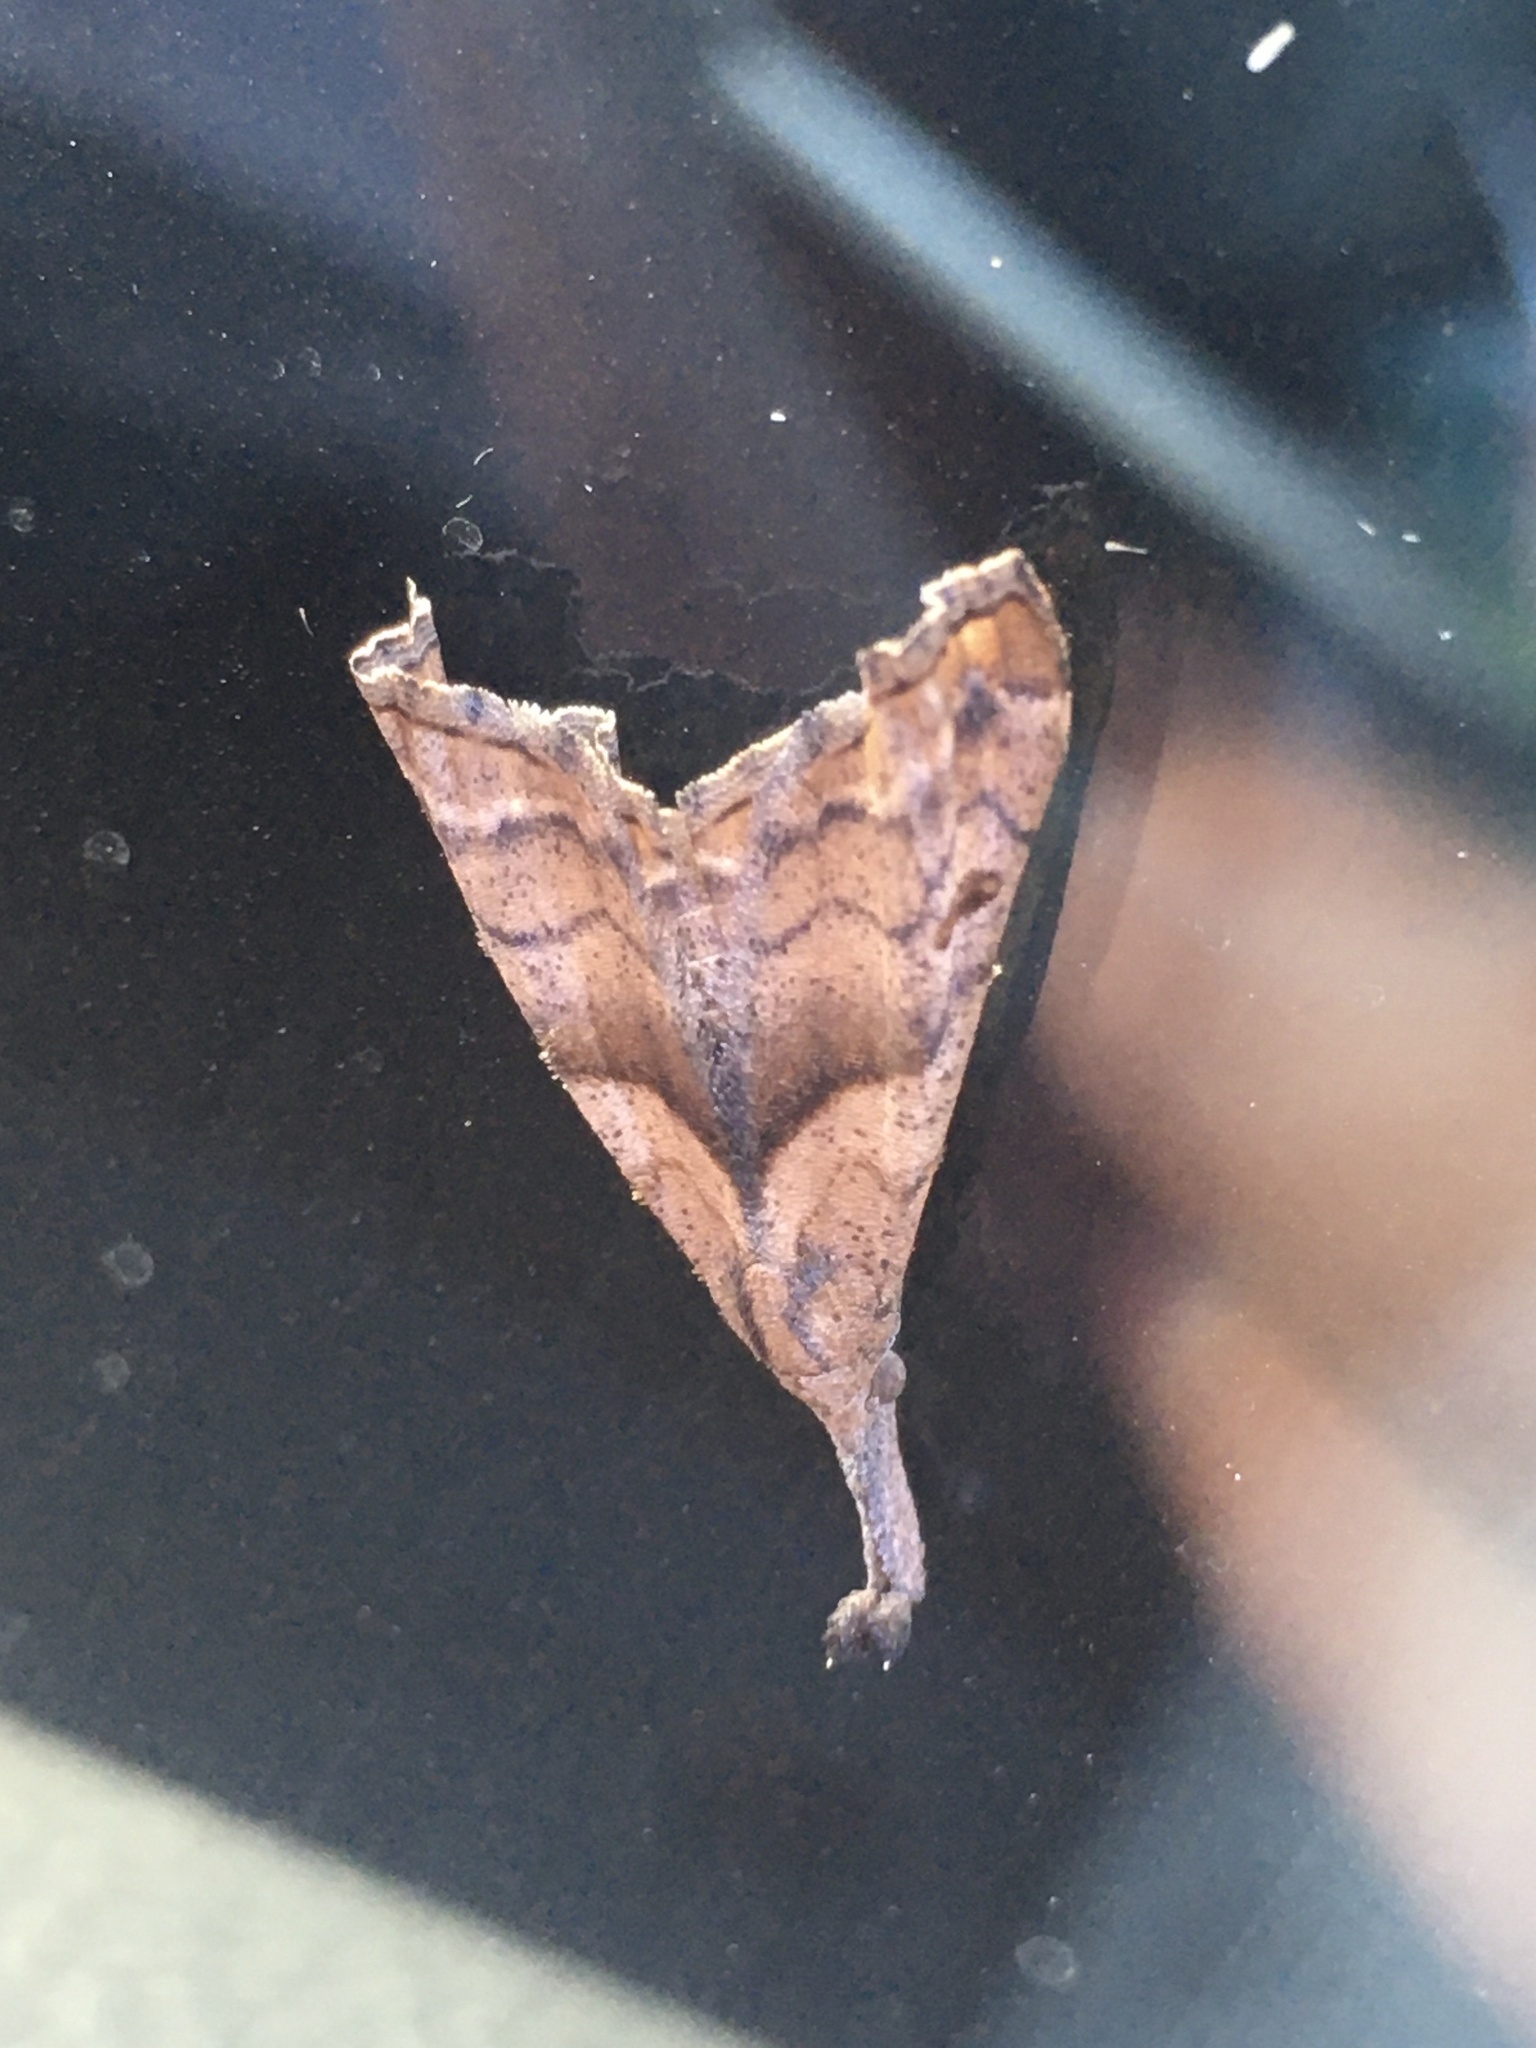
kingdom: Animalia
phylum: Arthropoda
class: Insecta
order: Lepidoptera
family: Erebidae
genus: Palthis
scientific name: Palthis angulalis
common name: Dark-spotted palthis moth
